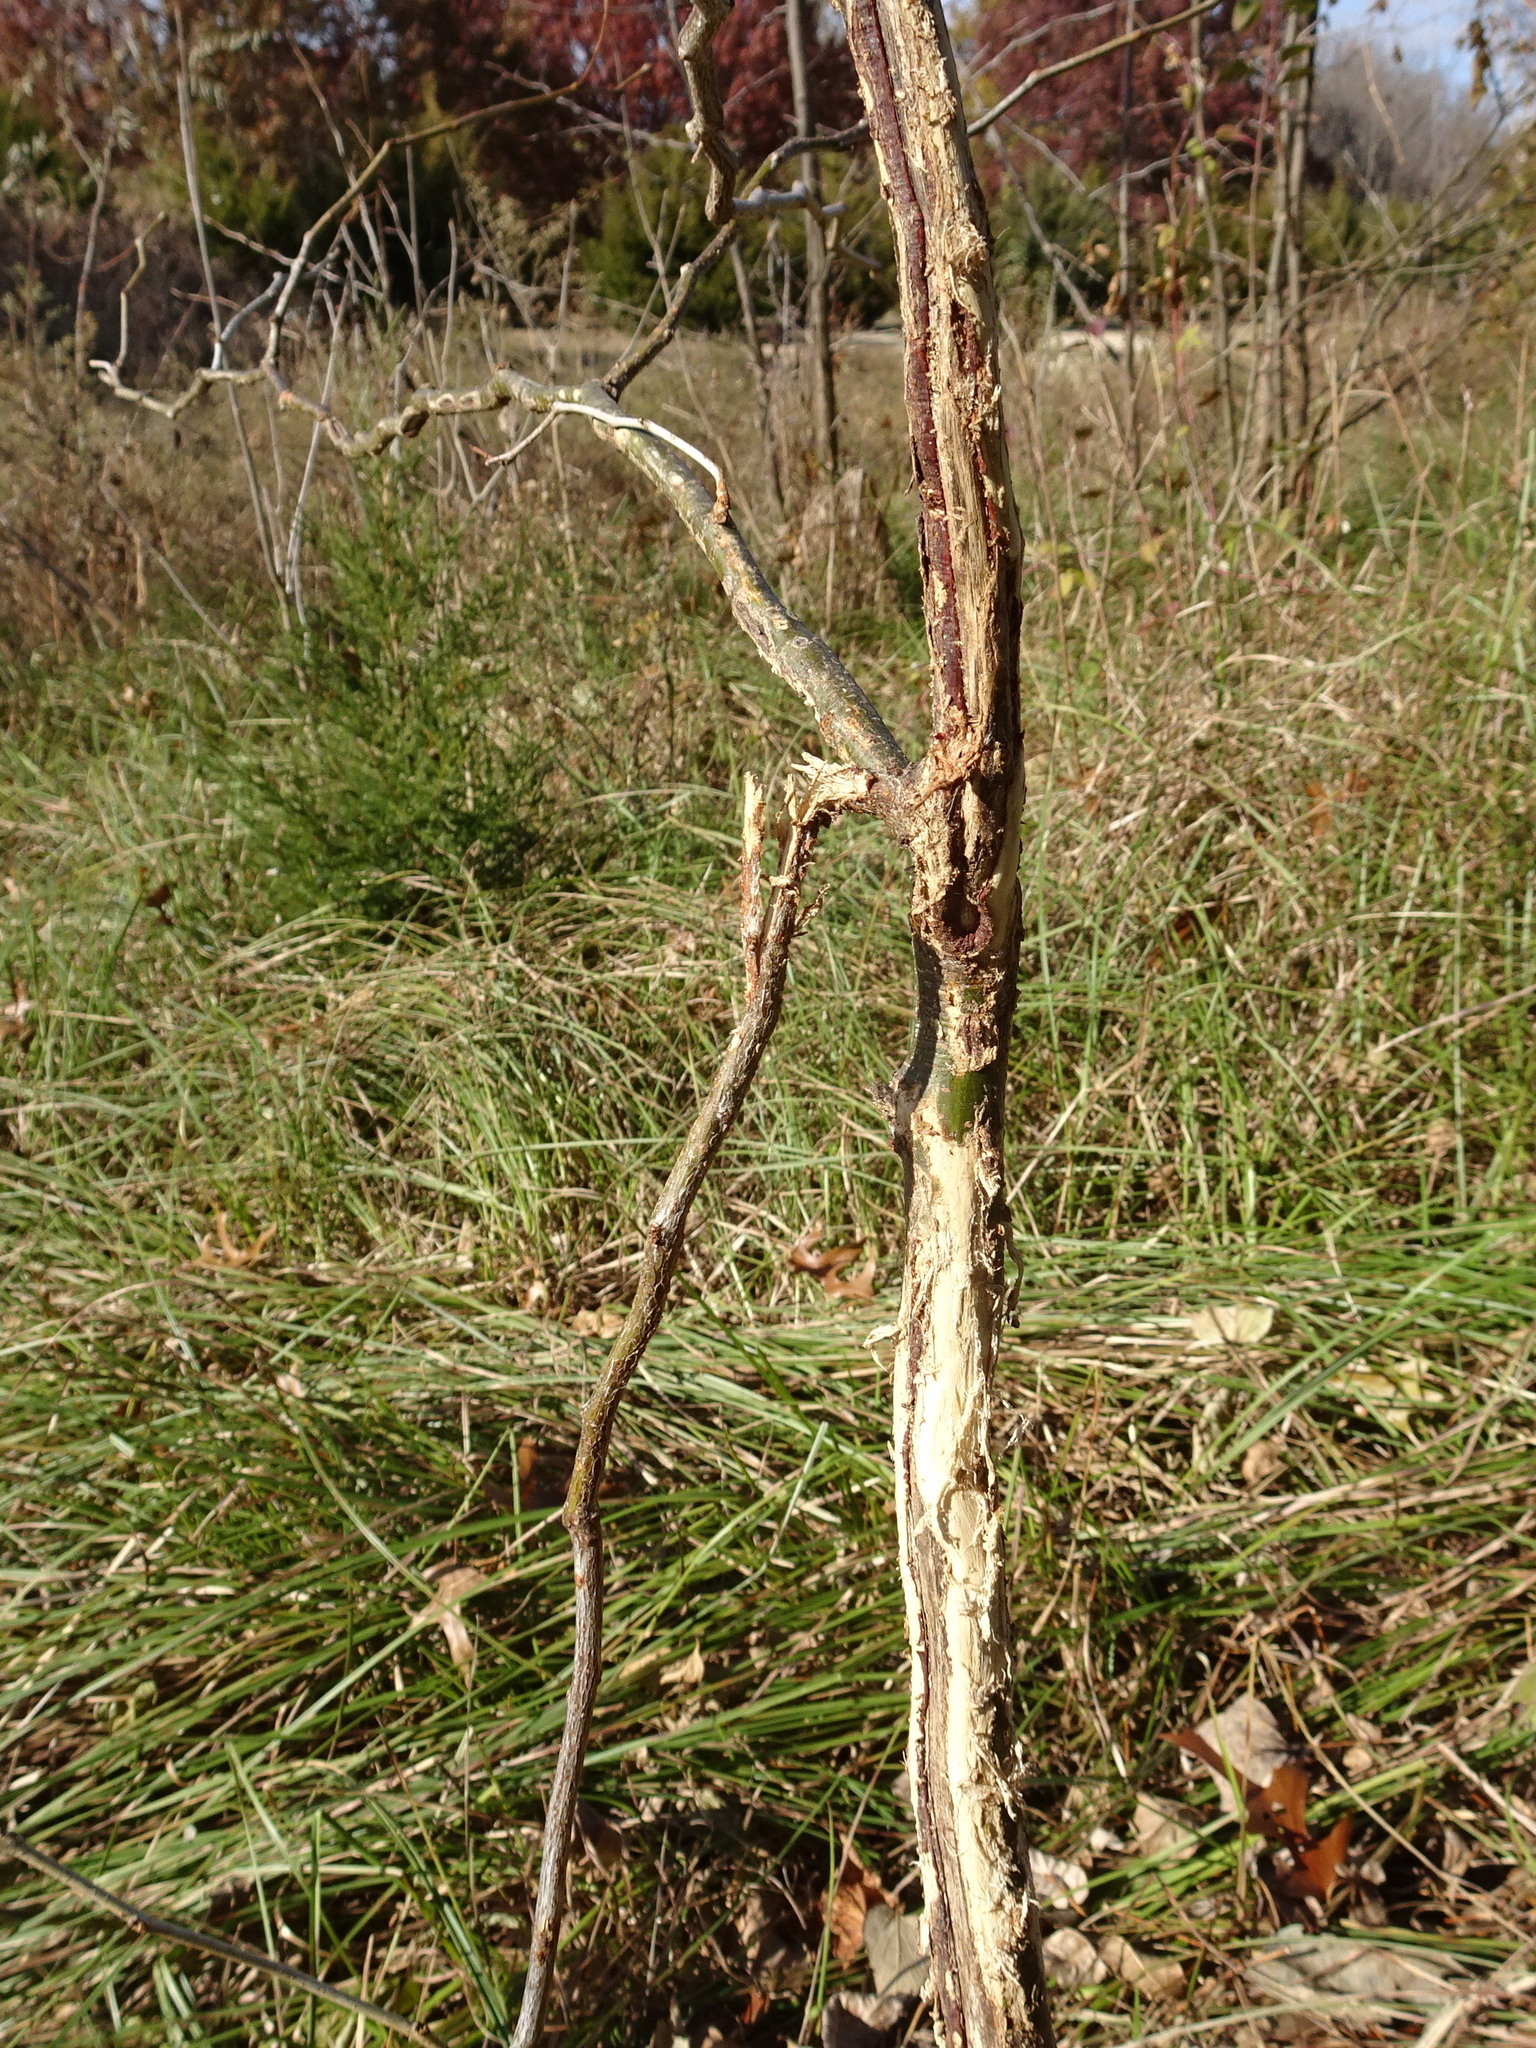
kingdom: Animalia
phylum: Chordata
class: Mammalia
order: Artiodactyla
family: Cervidae
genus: Odocoileus
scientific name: Odocoileus virginianus
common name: White-tailed deer
